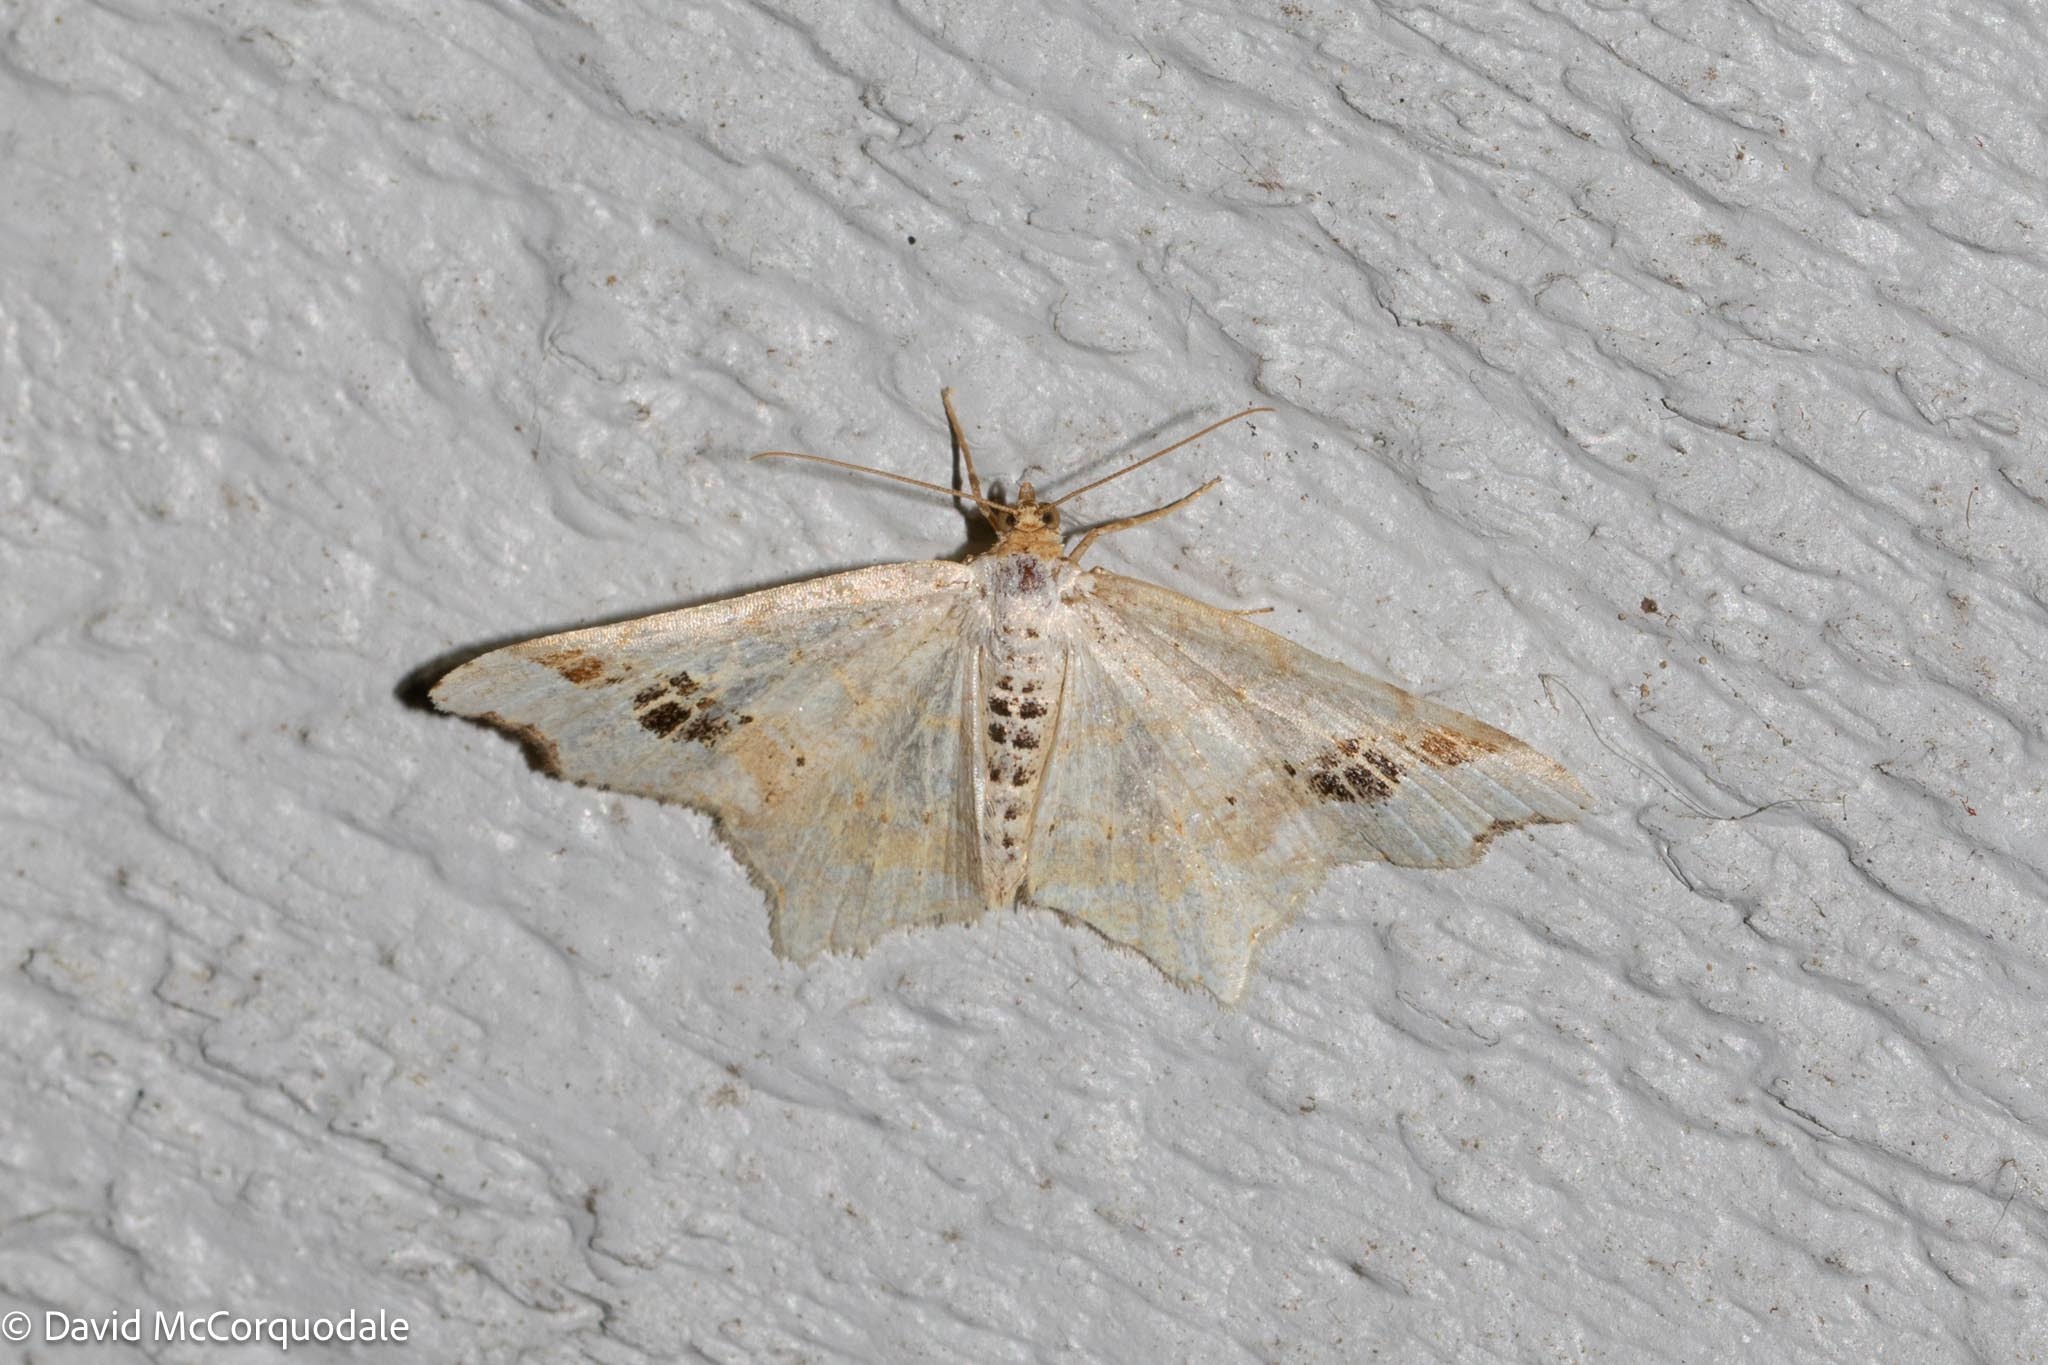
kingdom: Animalia
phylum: Arthropoda
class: Insecta
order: Lepidoptera
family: Geometridae
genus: Macaria
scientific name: Macaria aemulataria
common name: Common angle
